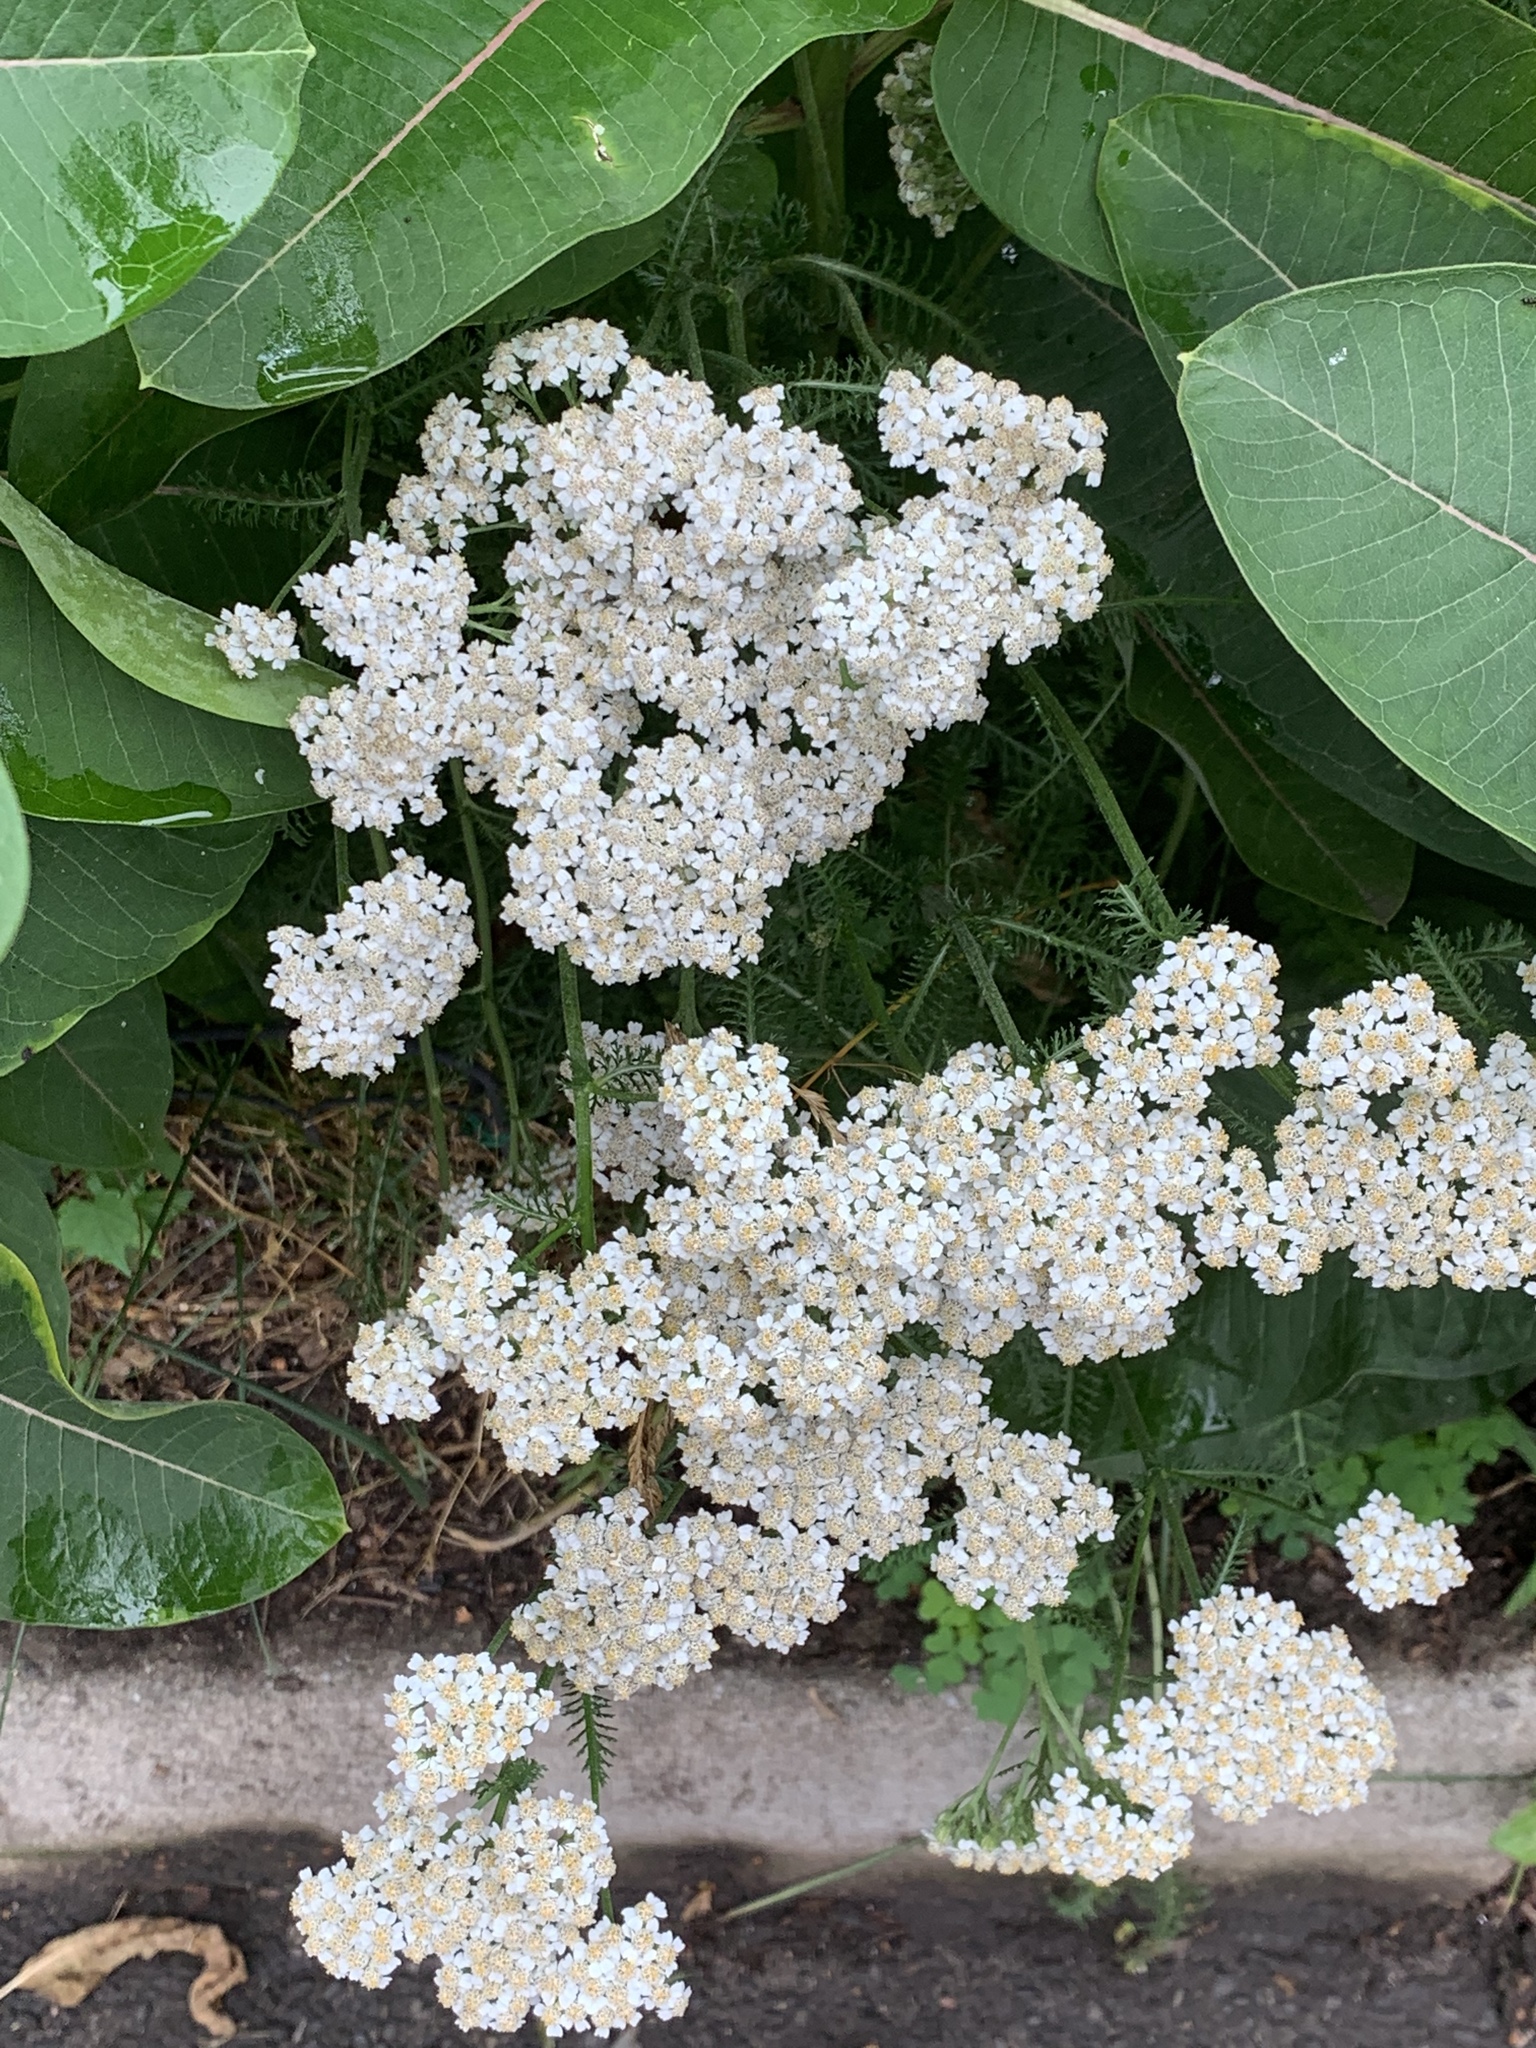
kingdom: Plantae
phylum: Tracheophyta
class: Magnoliopsida
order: Asterales
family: Asteraceae
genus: Achillea
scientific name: Achillea millefolium
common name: Yarrow
